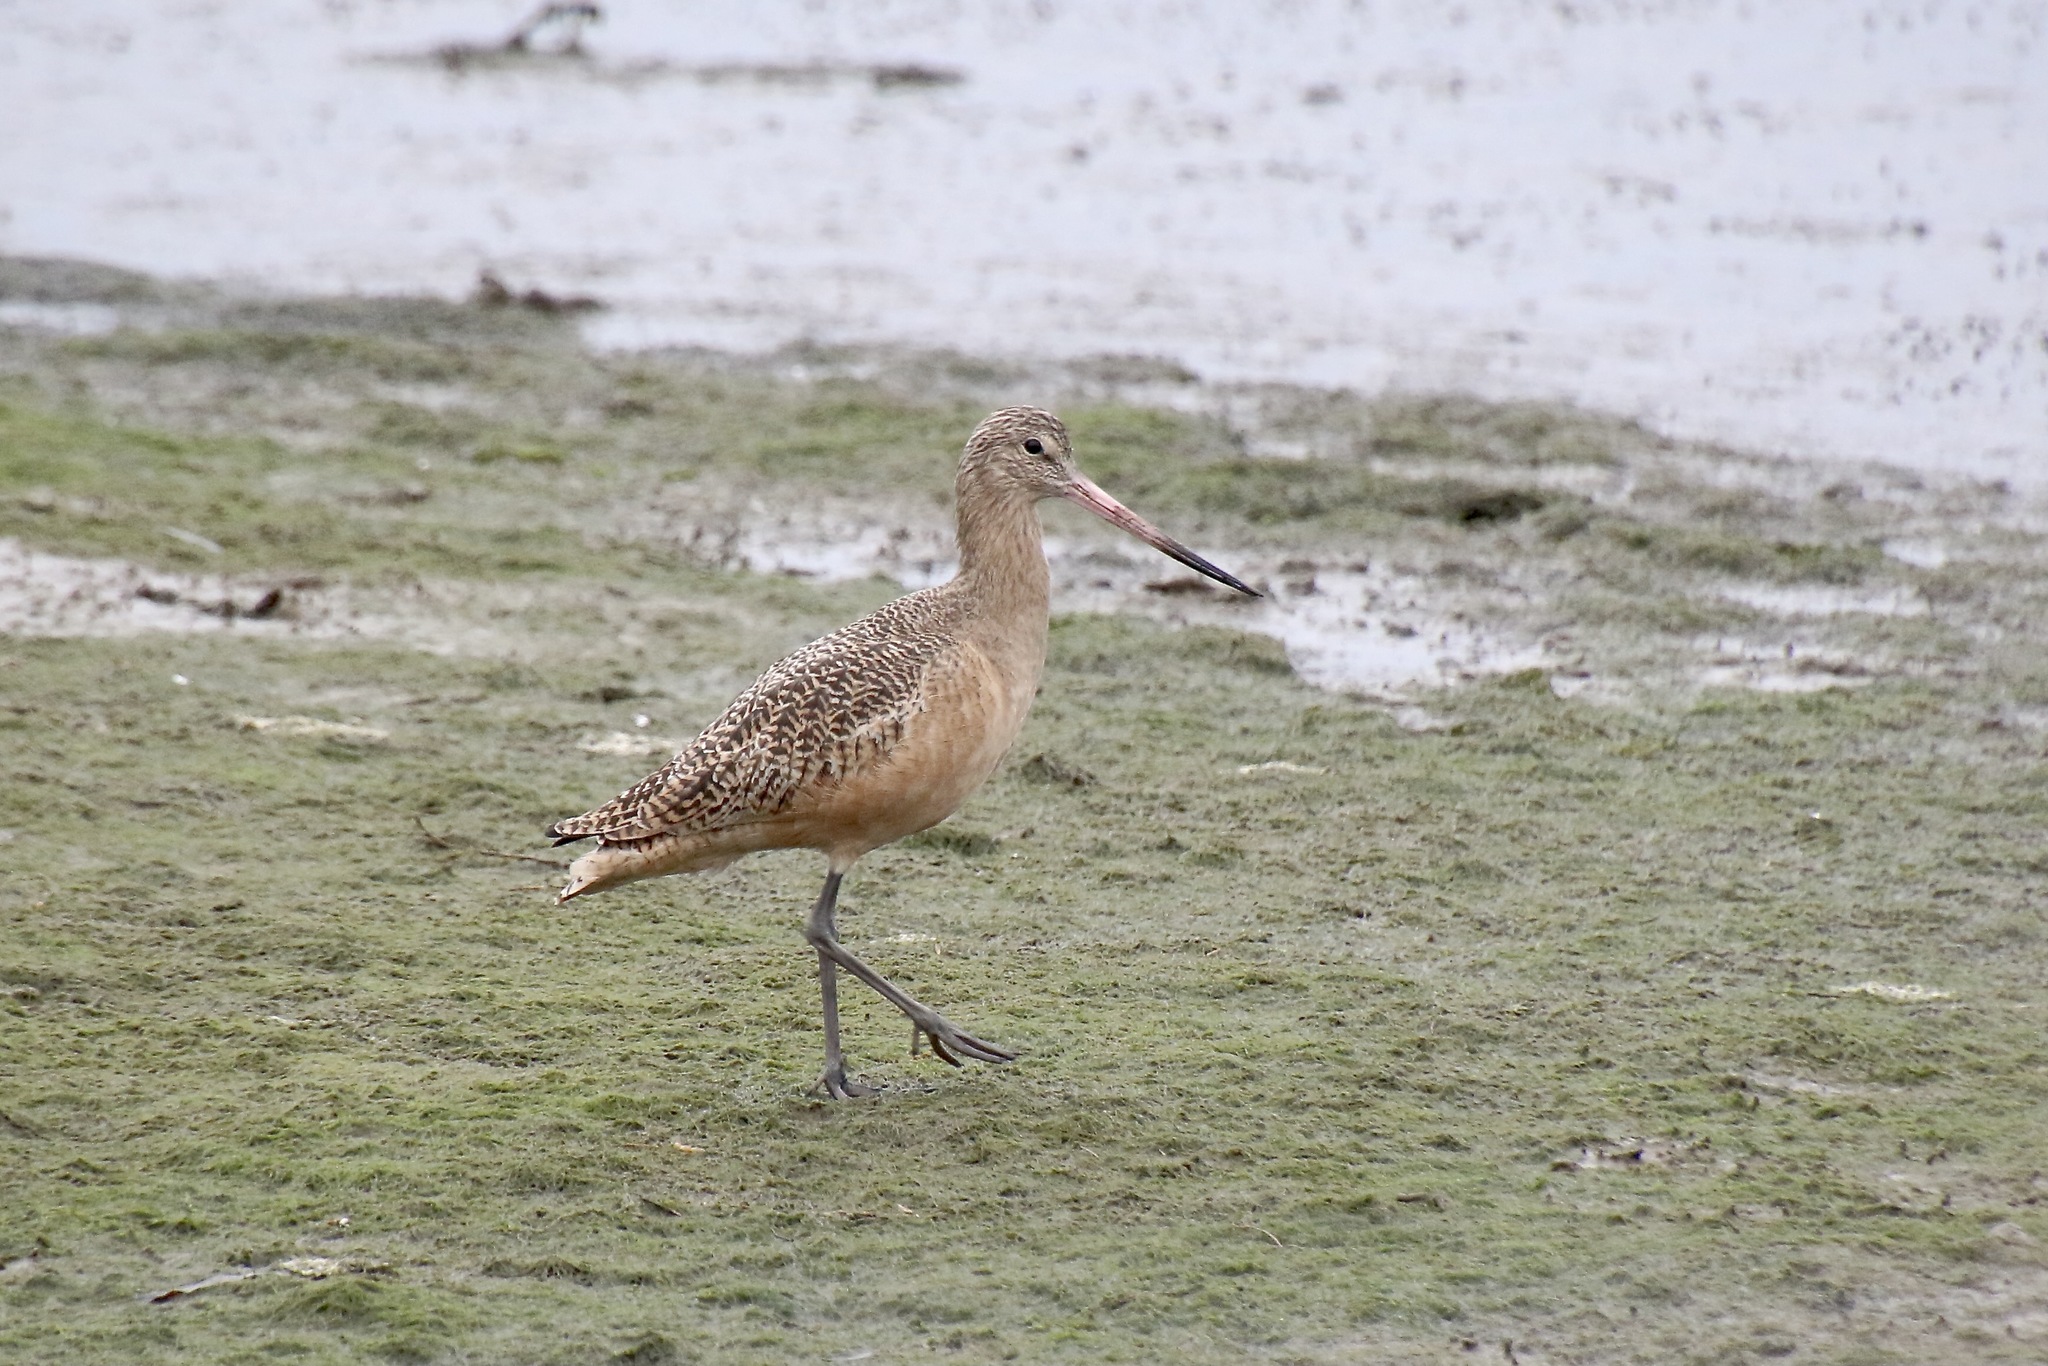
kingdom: Animalia
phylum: Chordata
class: Aves
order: Charadriiformes
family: Scolopacidae
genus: Limosa
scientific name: Limosa fedoa
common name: Marbled godwit
